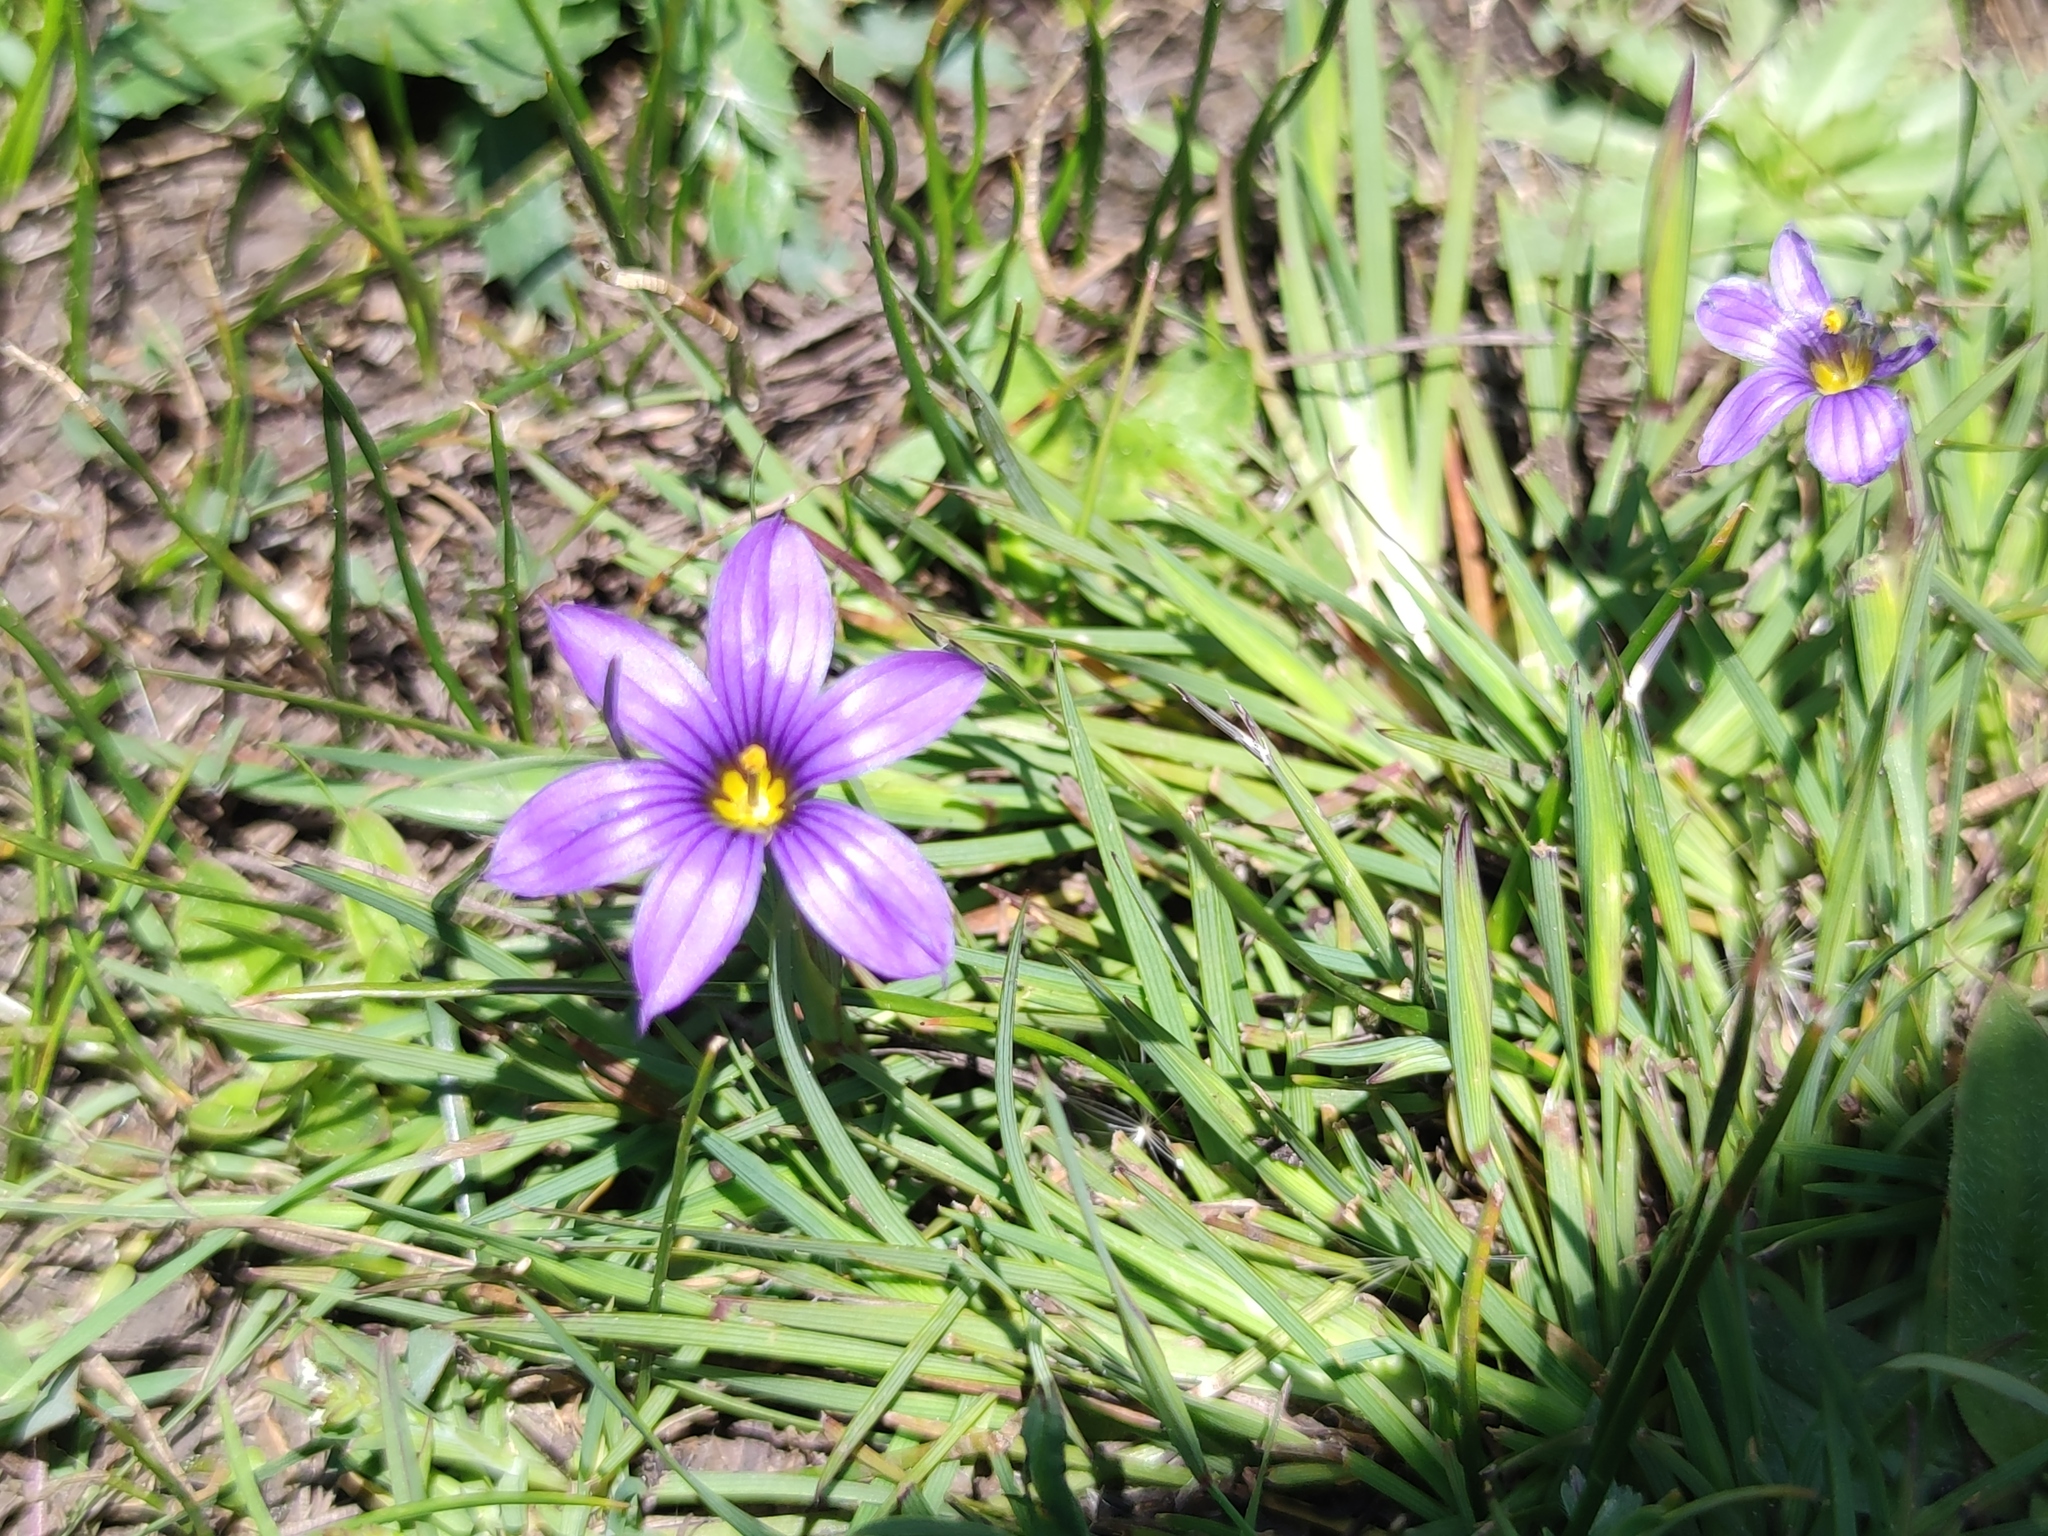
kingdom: Plantae
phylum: Tracheophyta
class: Liliopsida
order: Asparagales
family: Iridaceae
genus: Sisyrinchium
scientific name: Sisyrinchium scabrum
